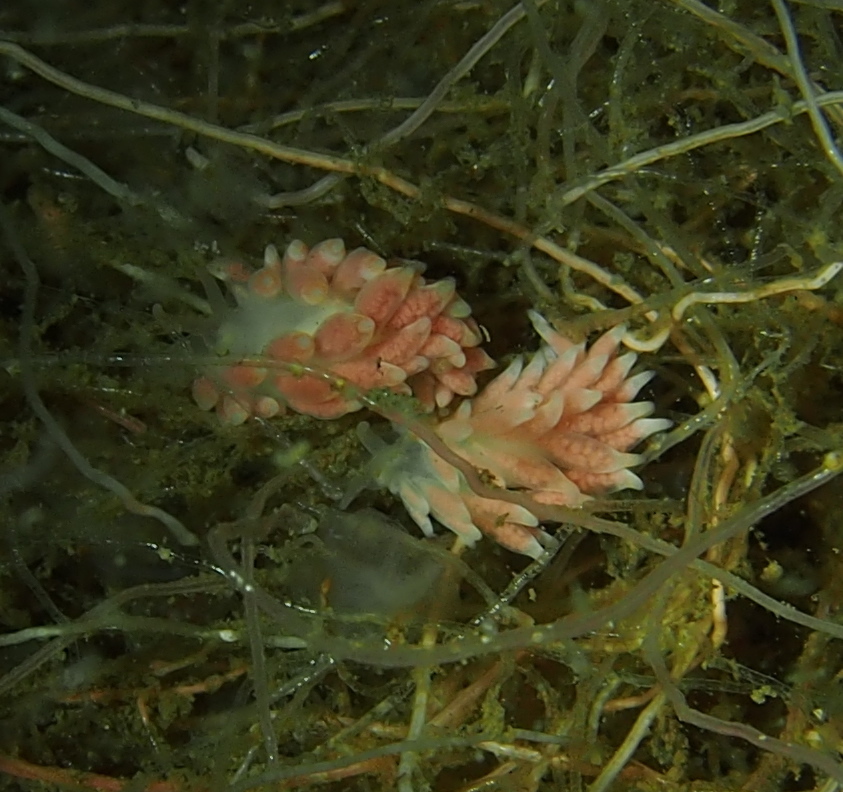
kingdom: Animalia
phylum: Mollusca
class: Gastropoda
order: Nudibranchia
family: Trinchesiidae
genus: Catriona
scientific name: Catriona aurantia
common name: Corange-tip cuthona
